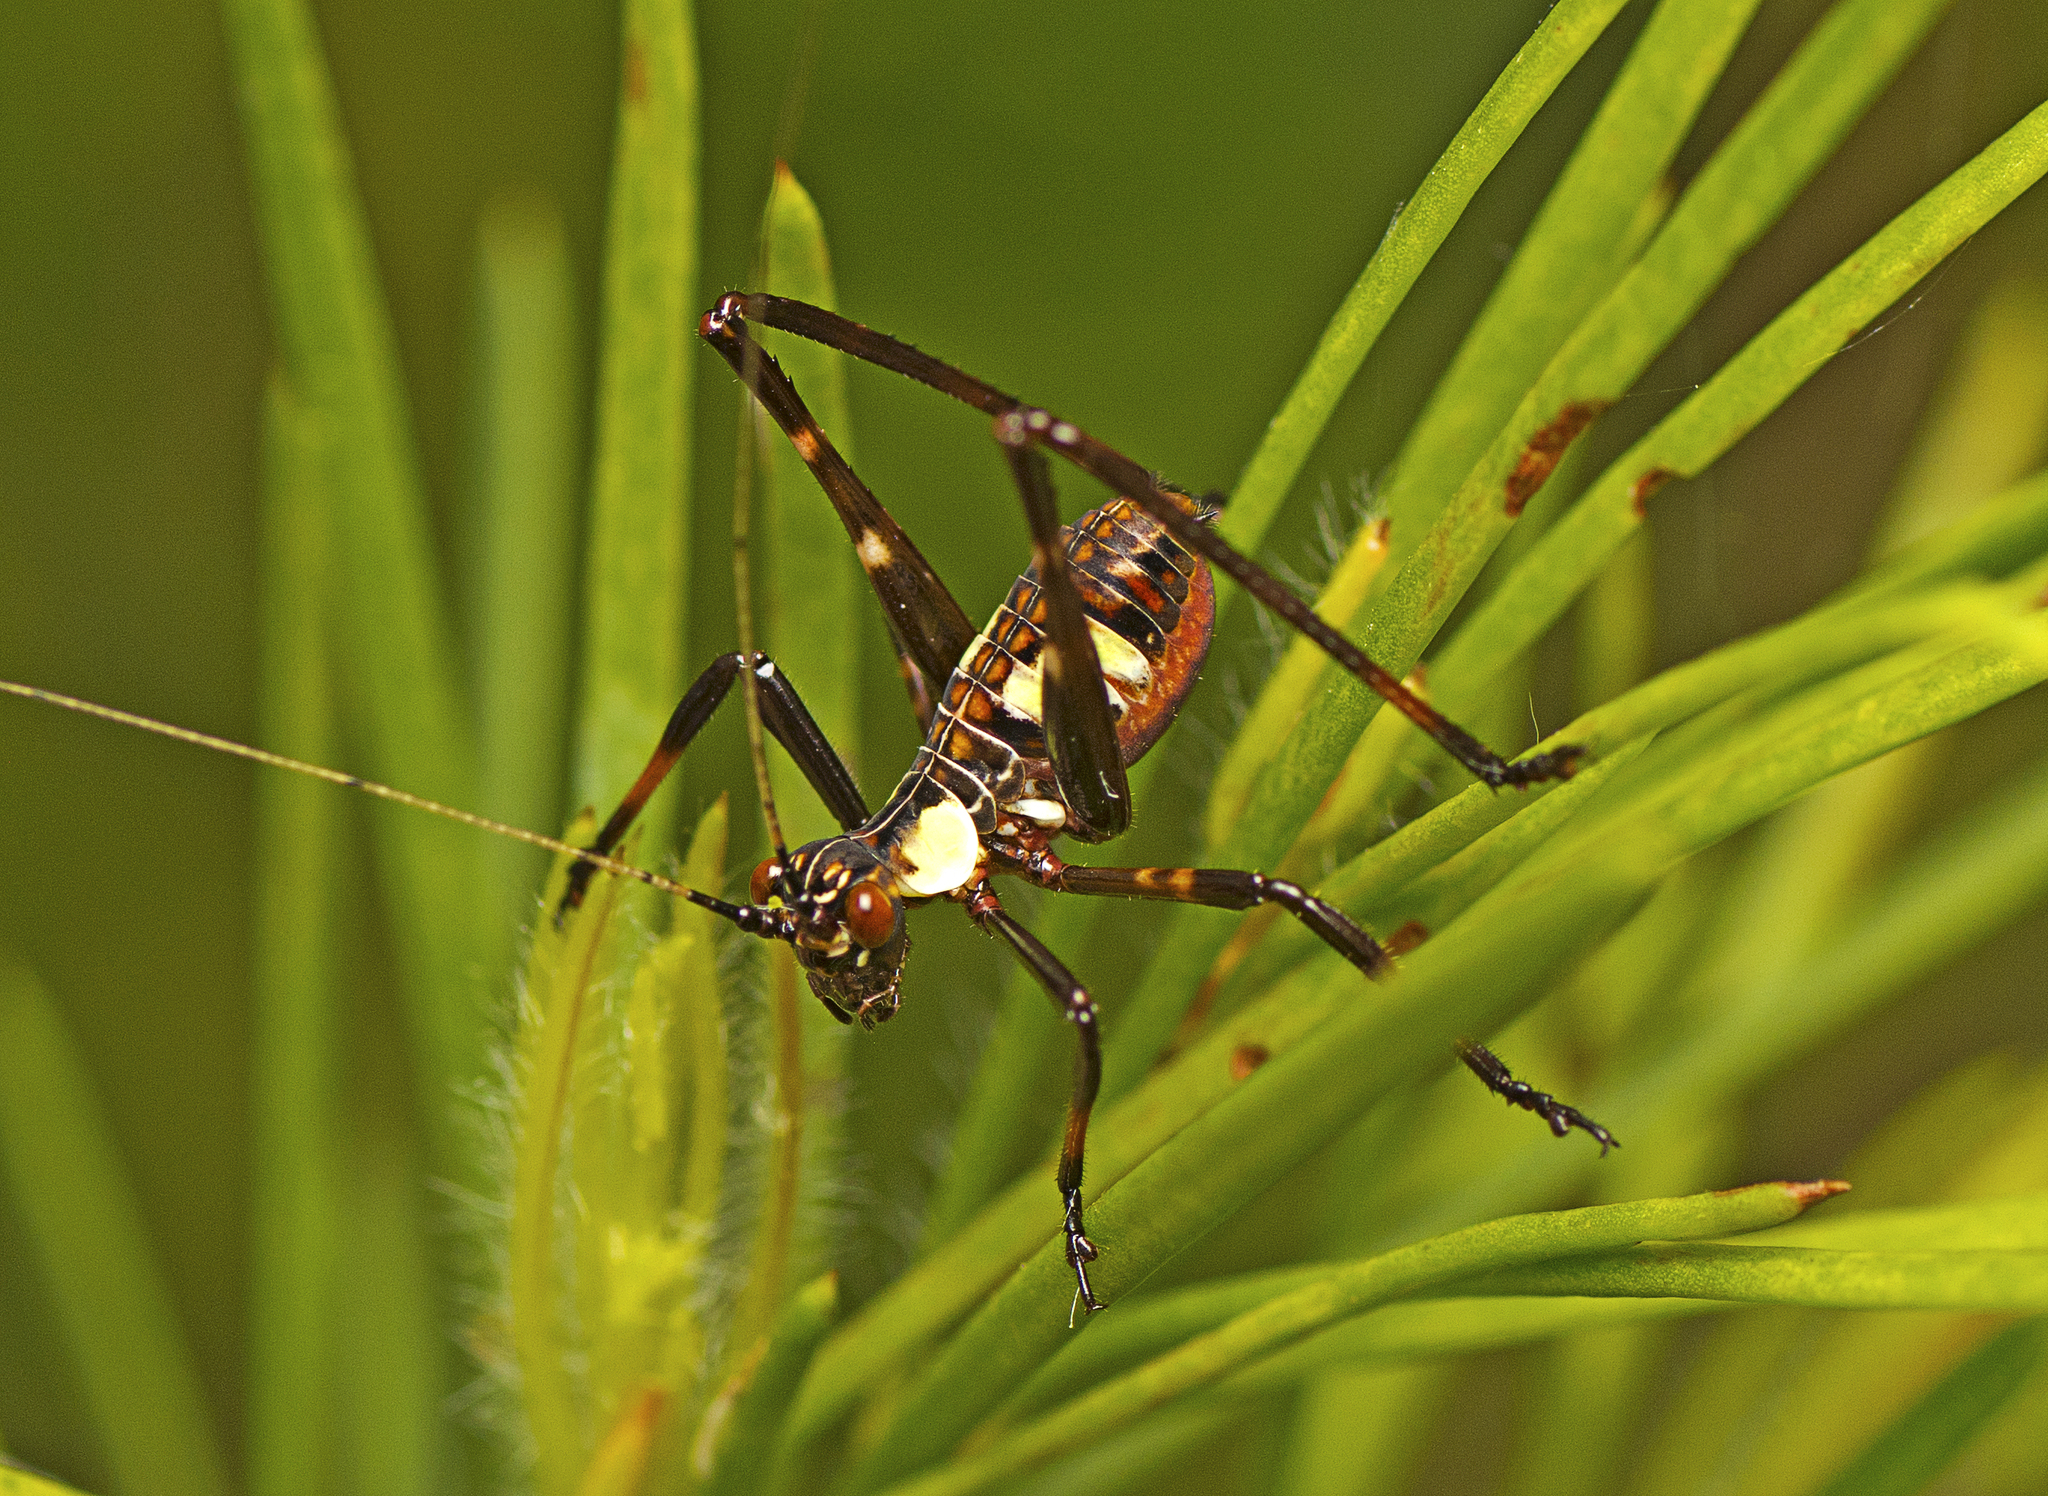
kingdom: Animalia
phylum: Arthropoda
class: Insecta
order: Orthoptera
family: Tettigoniidae
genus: Ephippitytha
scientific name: Ephippitytha trigintiduoguttata
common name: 32-spotted katydid
